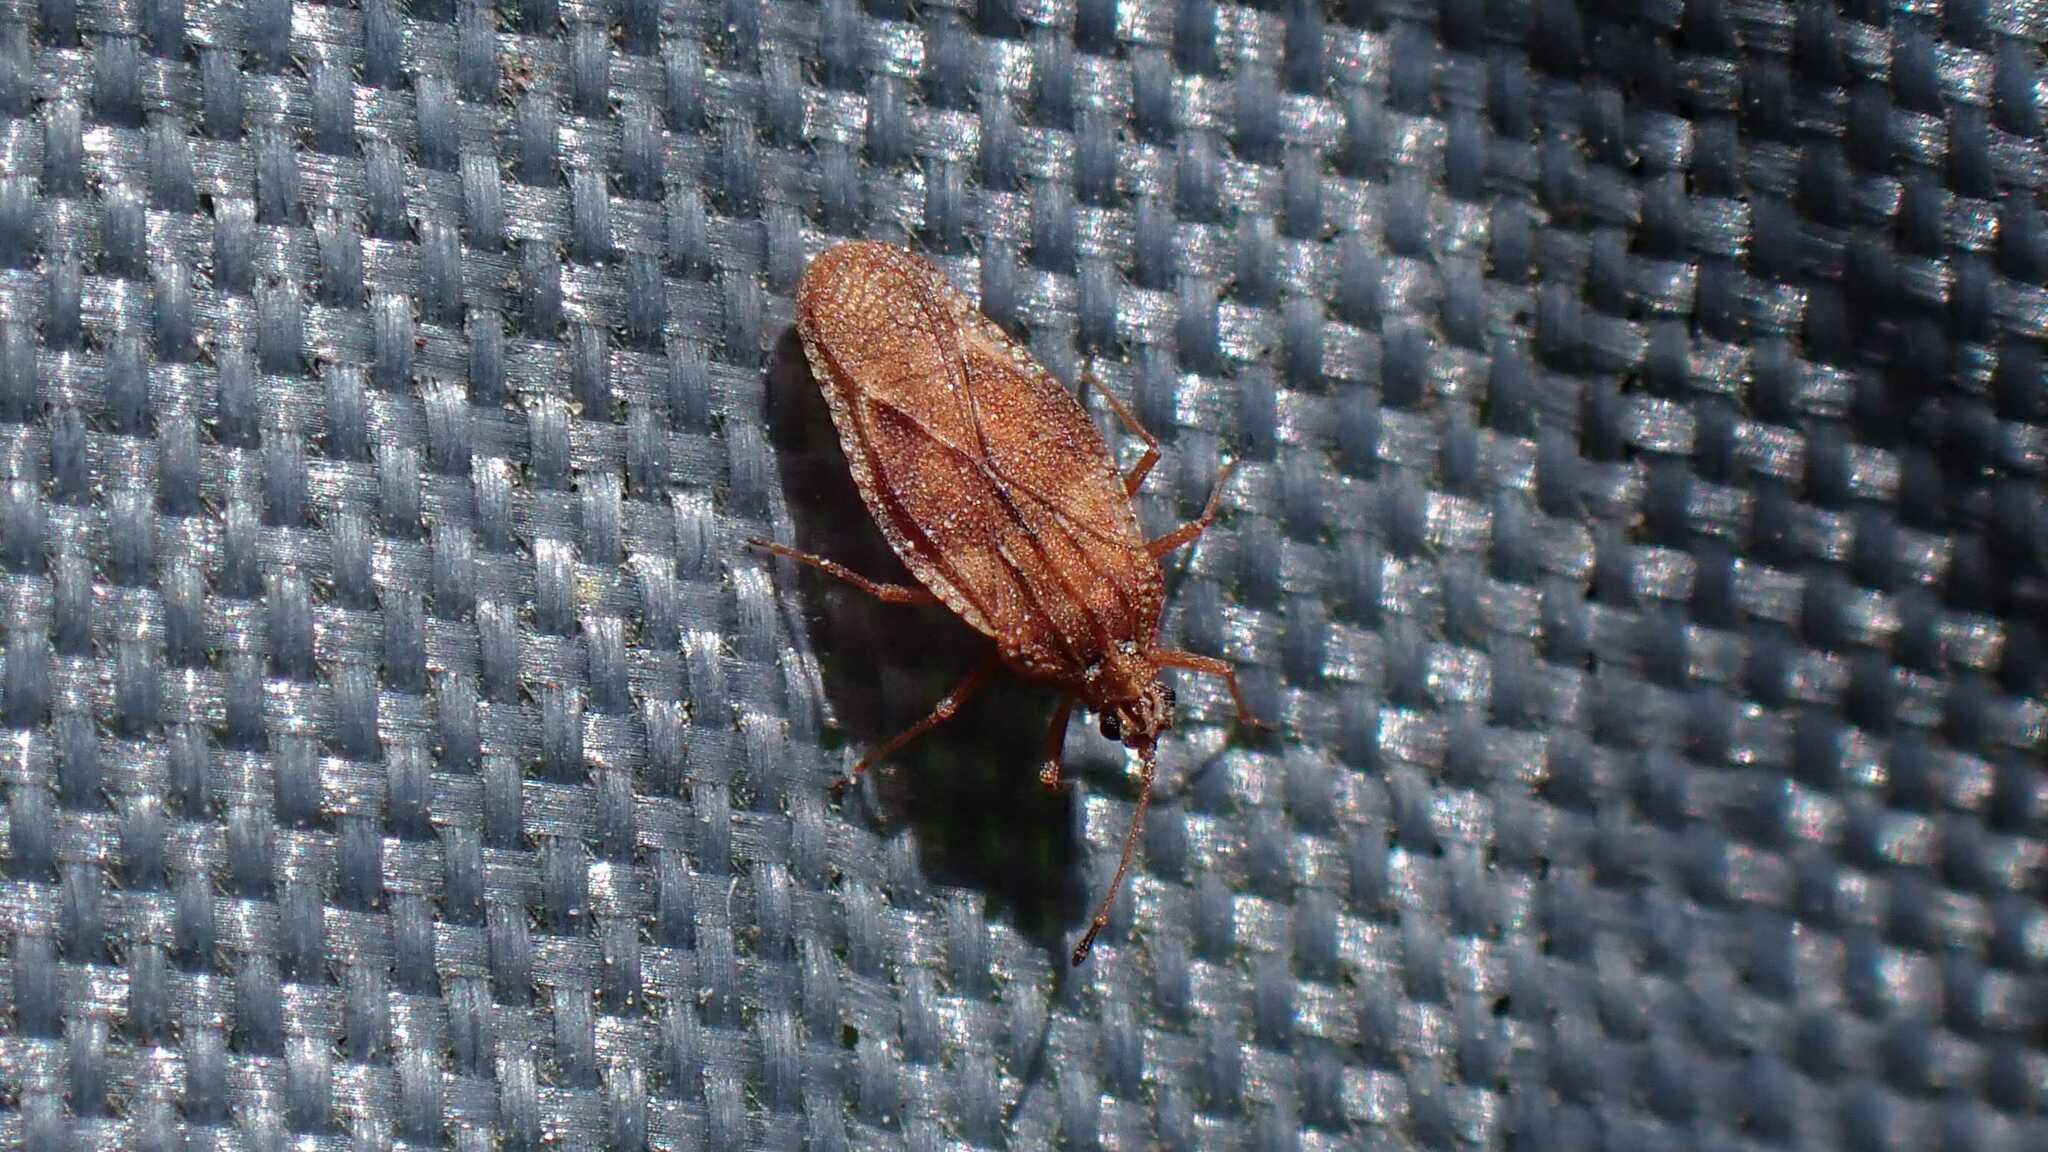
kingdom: Animalia
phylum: Arthropoda
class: Insecta
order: Hemiptera
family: Tingidae
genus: Physatocheila
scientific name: Physatocheila dumetorum
